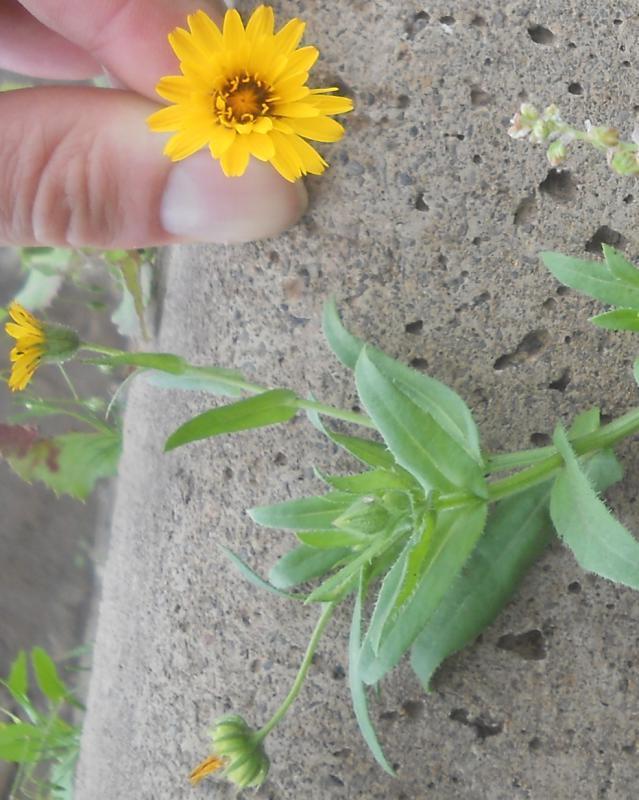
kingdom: Plantae
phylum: Tracheophyta
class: Magnoliopsida
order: Asterales
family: Asteraceae
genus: Calendula
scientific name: Calendula arvensis
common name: Field marigold
